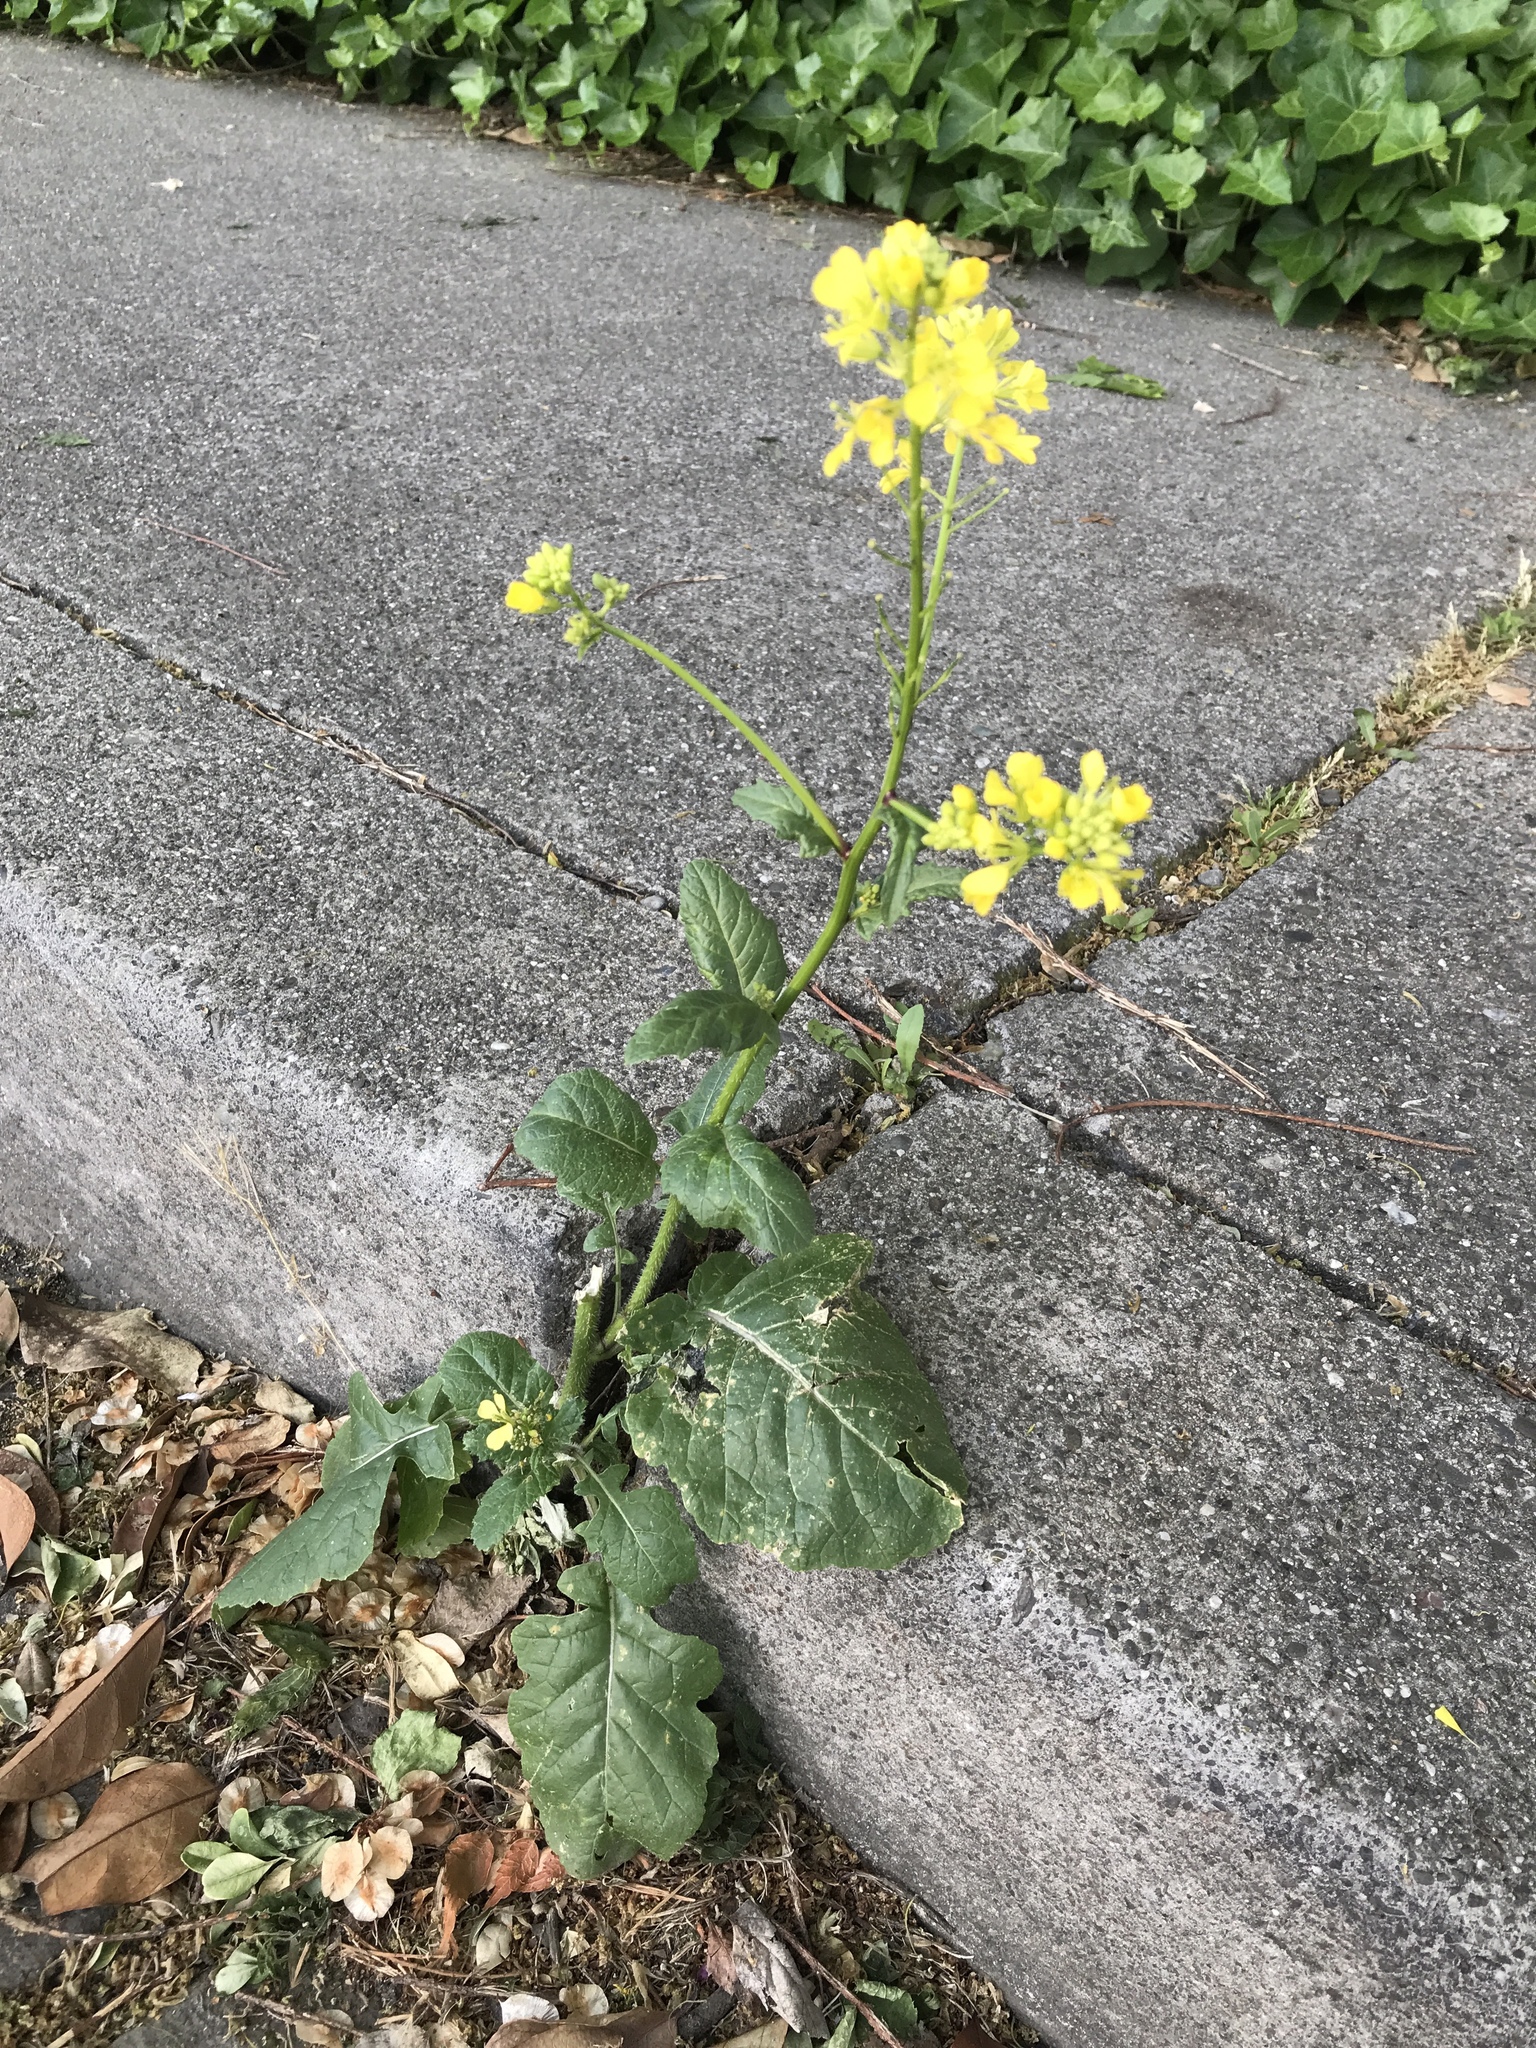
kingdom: Plantae
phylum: Tracheophyta
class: Magnoliopsida
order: Brassicales
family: Brassicaceae
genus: Sinapis
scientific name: Sinapis arvensis
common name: Charlock
